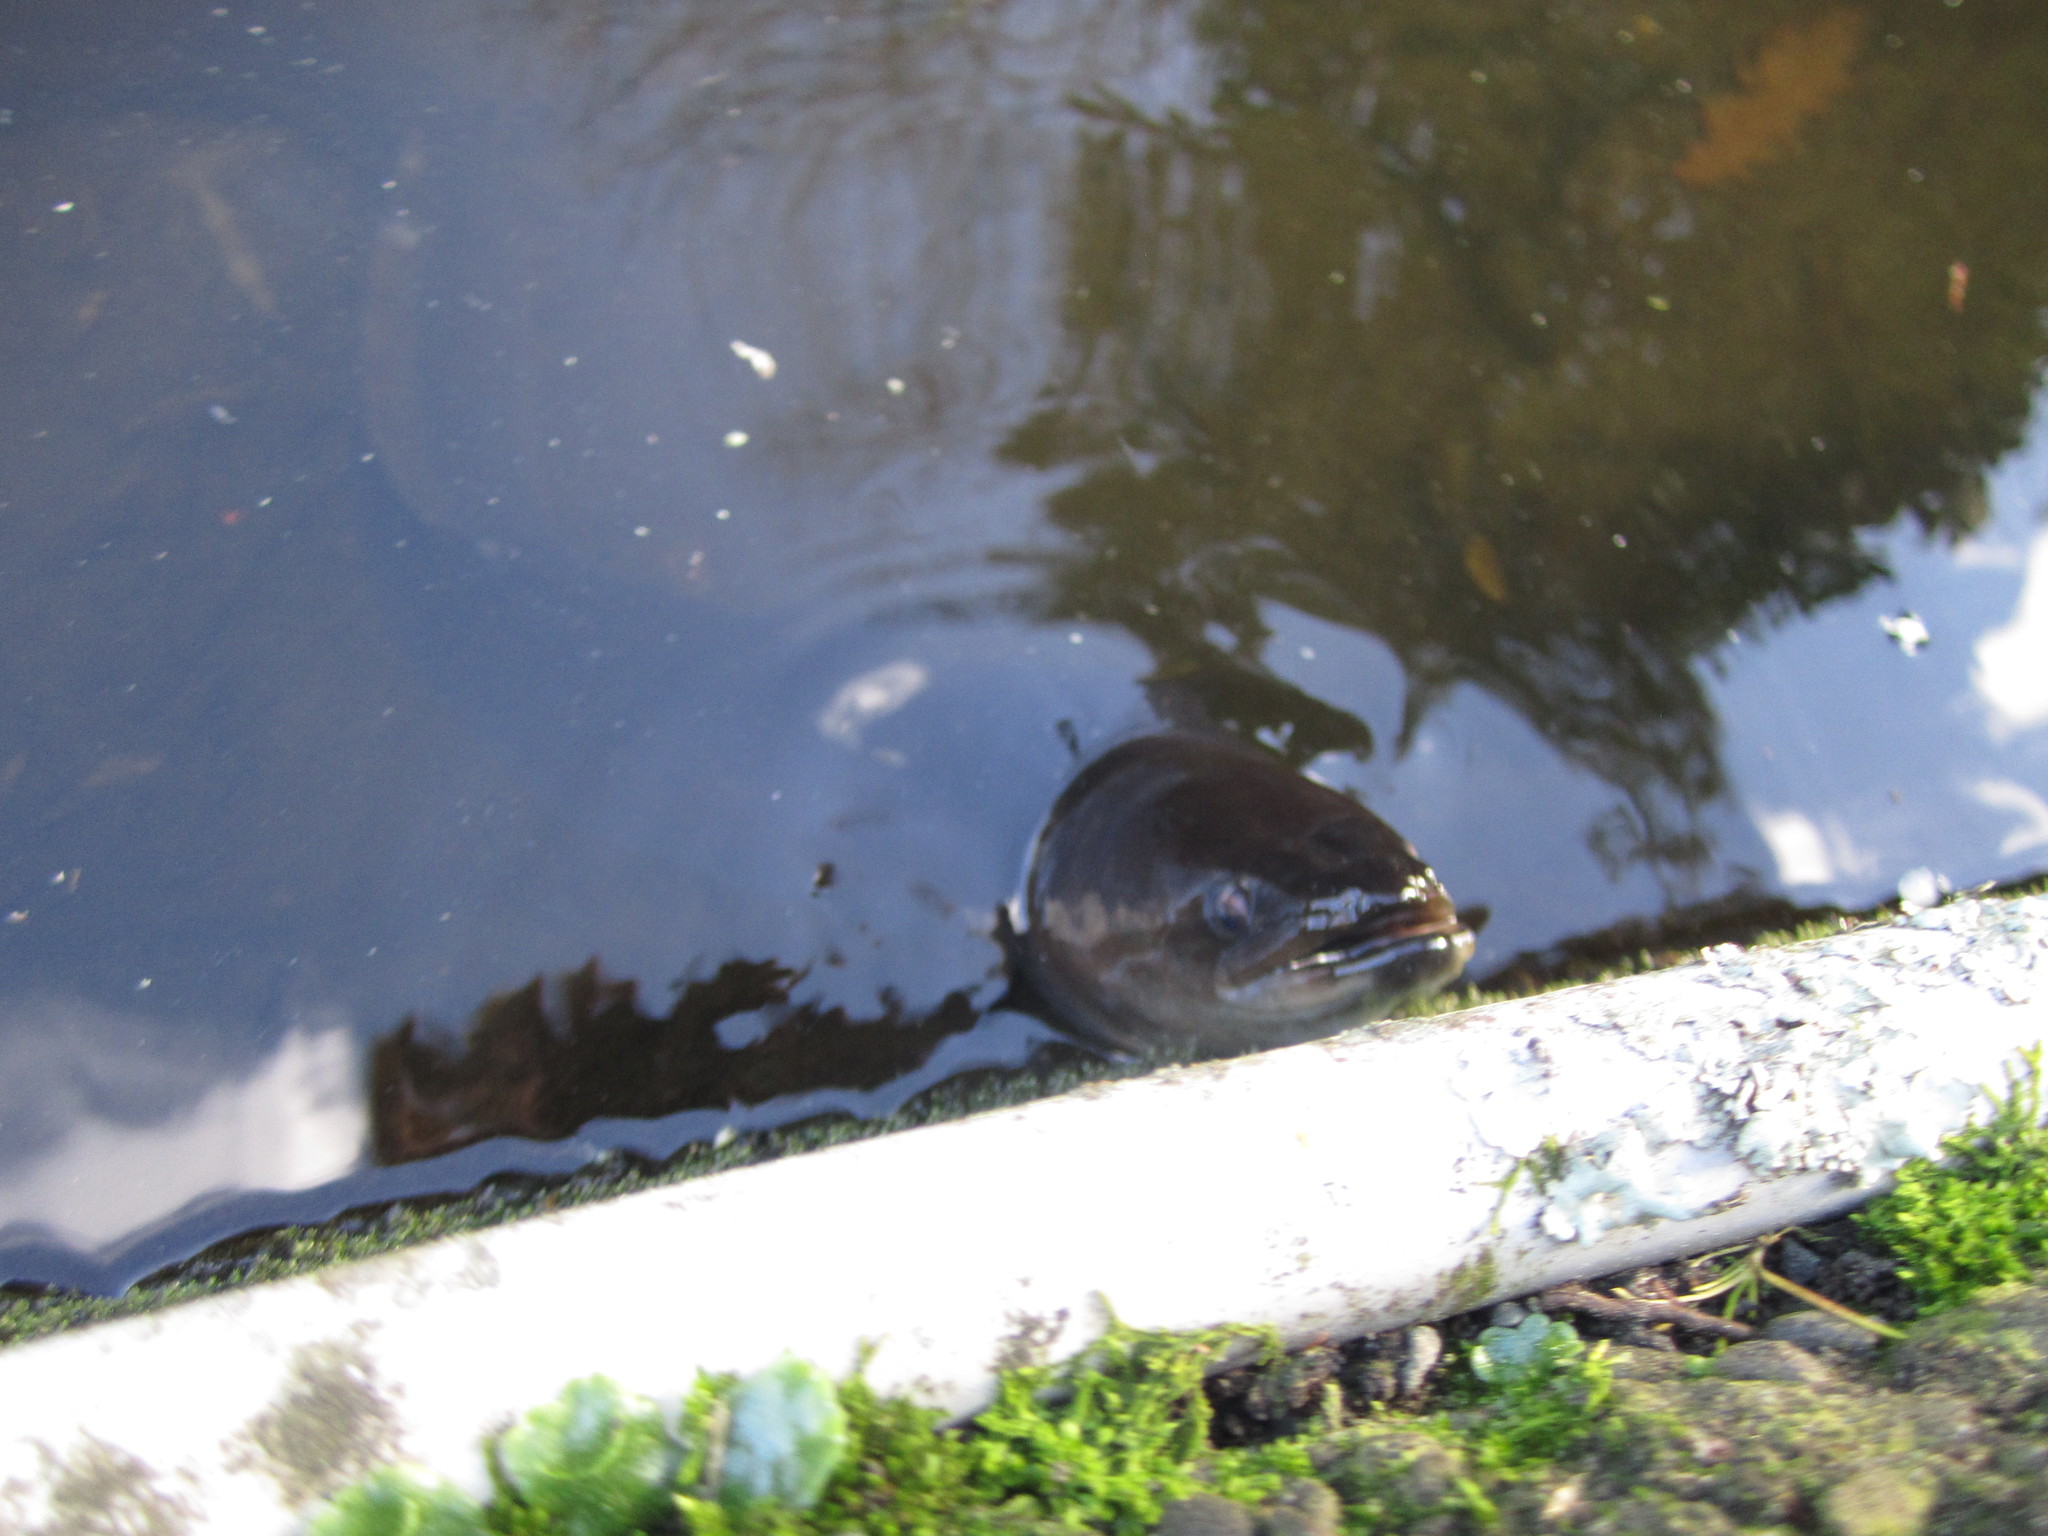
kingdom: Animalia
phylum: Chordata
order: Anguilliformes
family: Anguillidae
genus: Anguilla
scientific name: Anguilla dieffenbachii
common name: New zealand longfin eel
